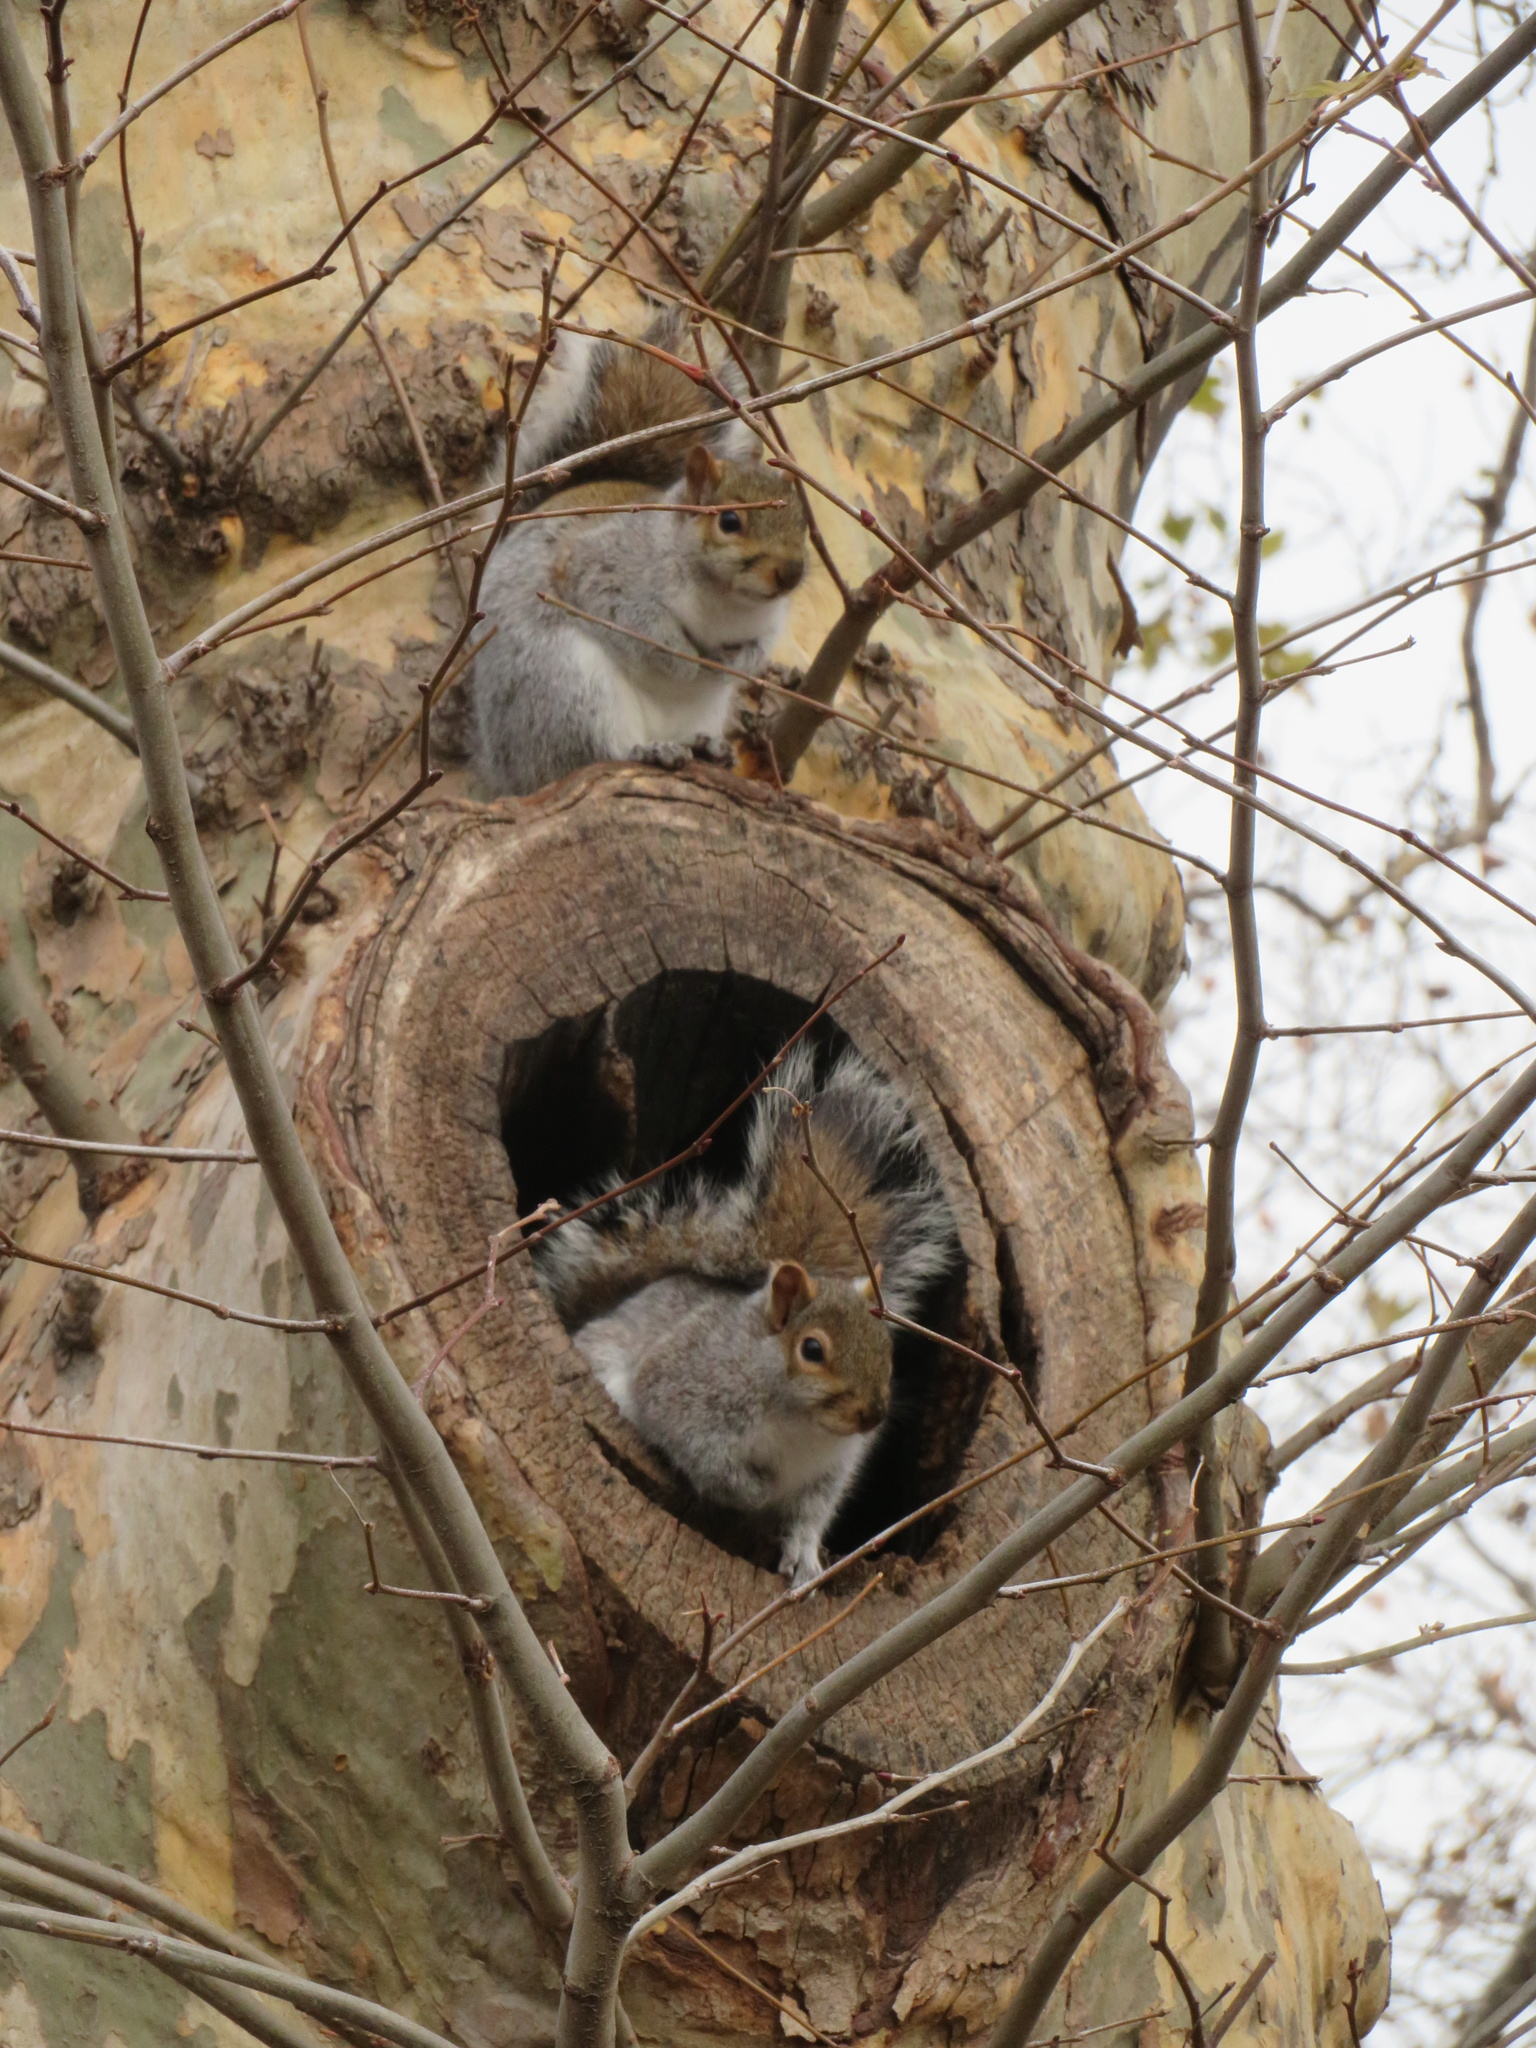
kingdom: Animalia
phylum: Chordata
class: Mammalia
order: Rodentia
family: Sciuridae
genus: Sciurus
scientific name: Sciurus carolinensis
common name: Eastern gray squirrel
